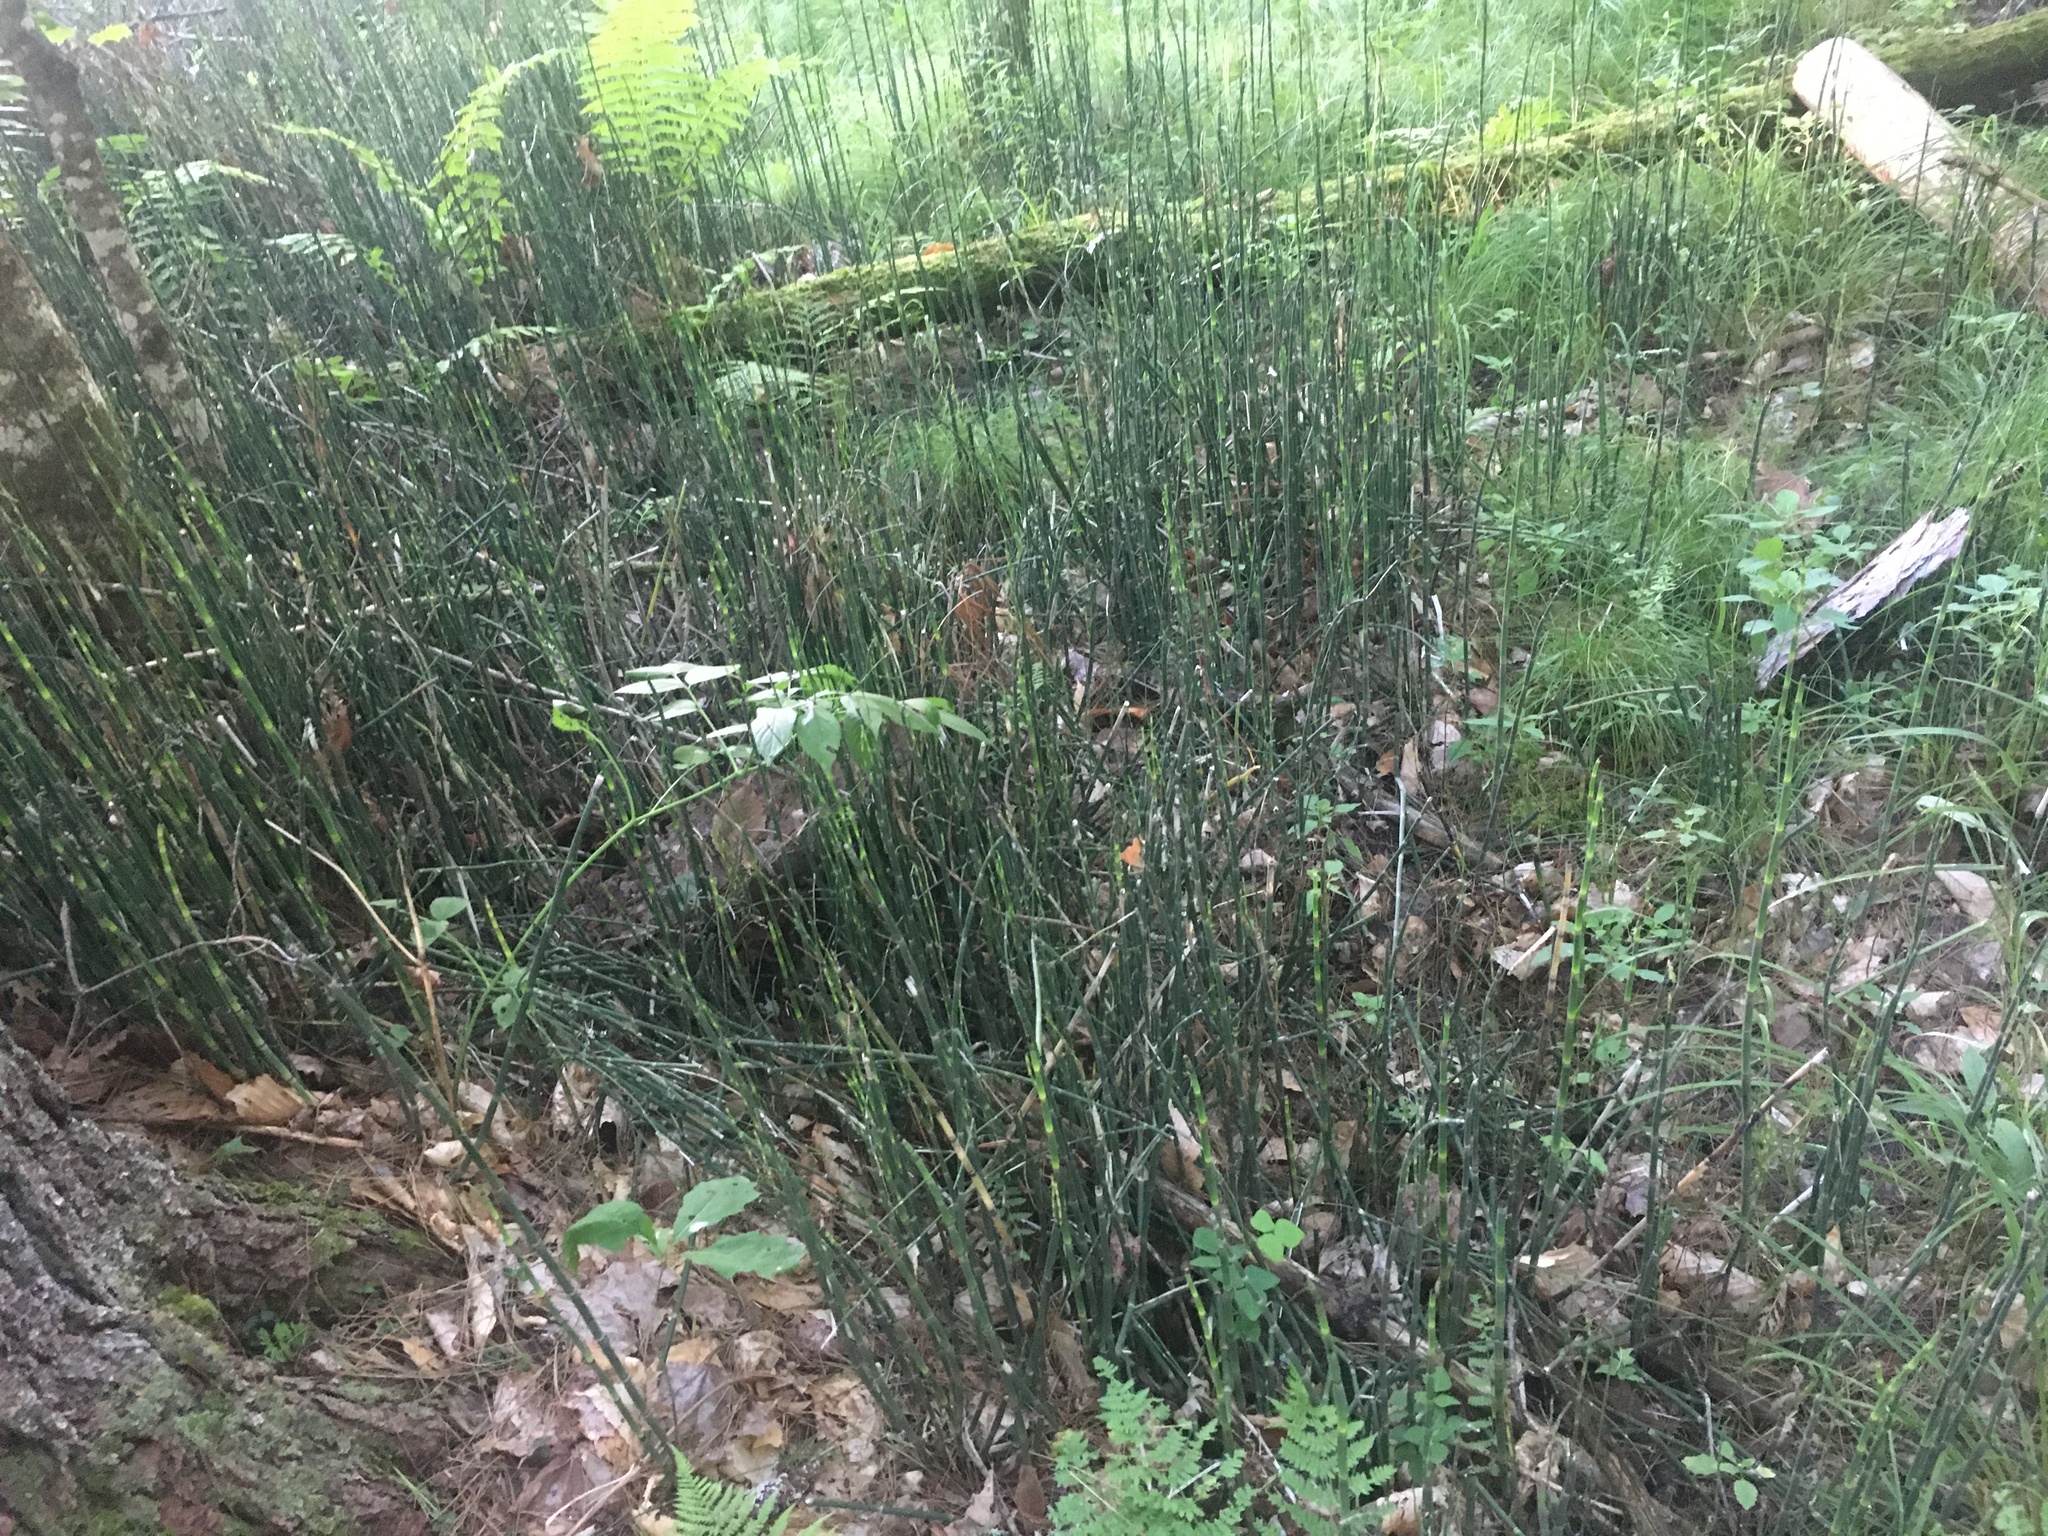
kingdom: Plantae
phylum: Tracheophyta
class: Polypodiopsida
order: Equisetales
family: Equisetaceae
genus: Equisetum
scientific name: Equisetum praealtum
